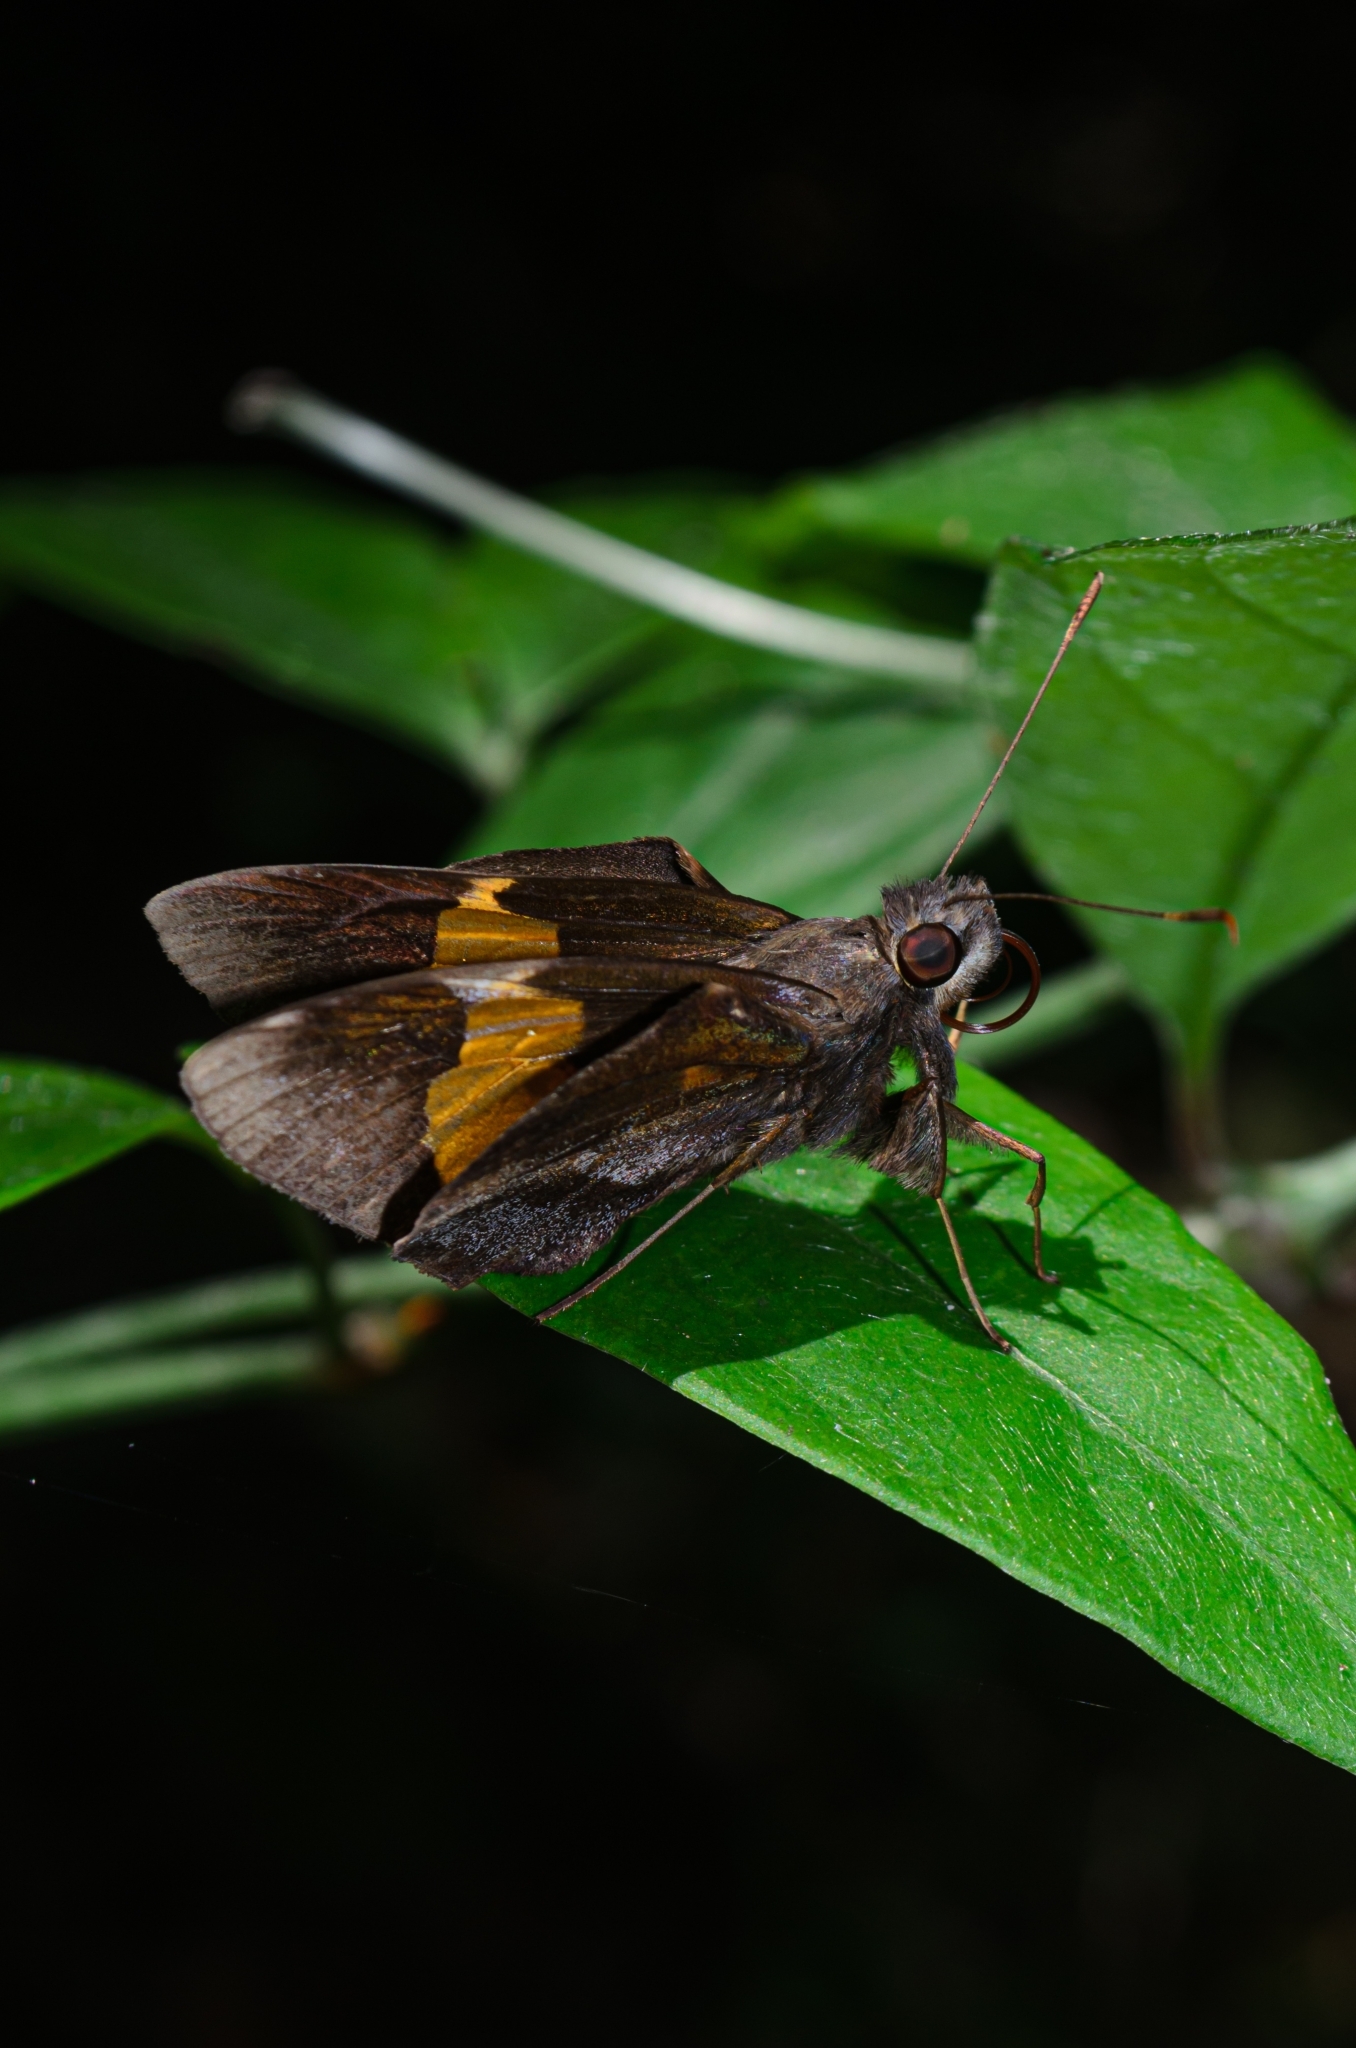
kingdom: Animalia
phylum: Arthropoda
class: Insecta
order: Lepidoptera
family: Hesperiidae
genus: Lychnuchoides
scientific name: Lychnuchoides ozias
